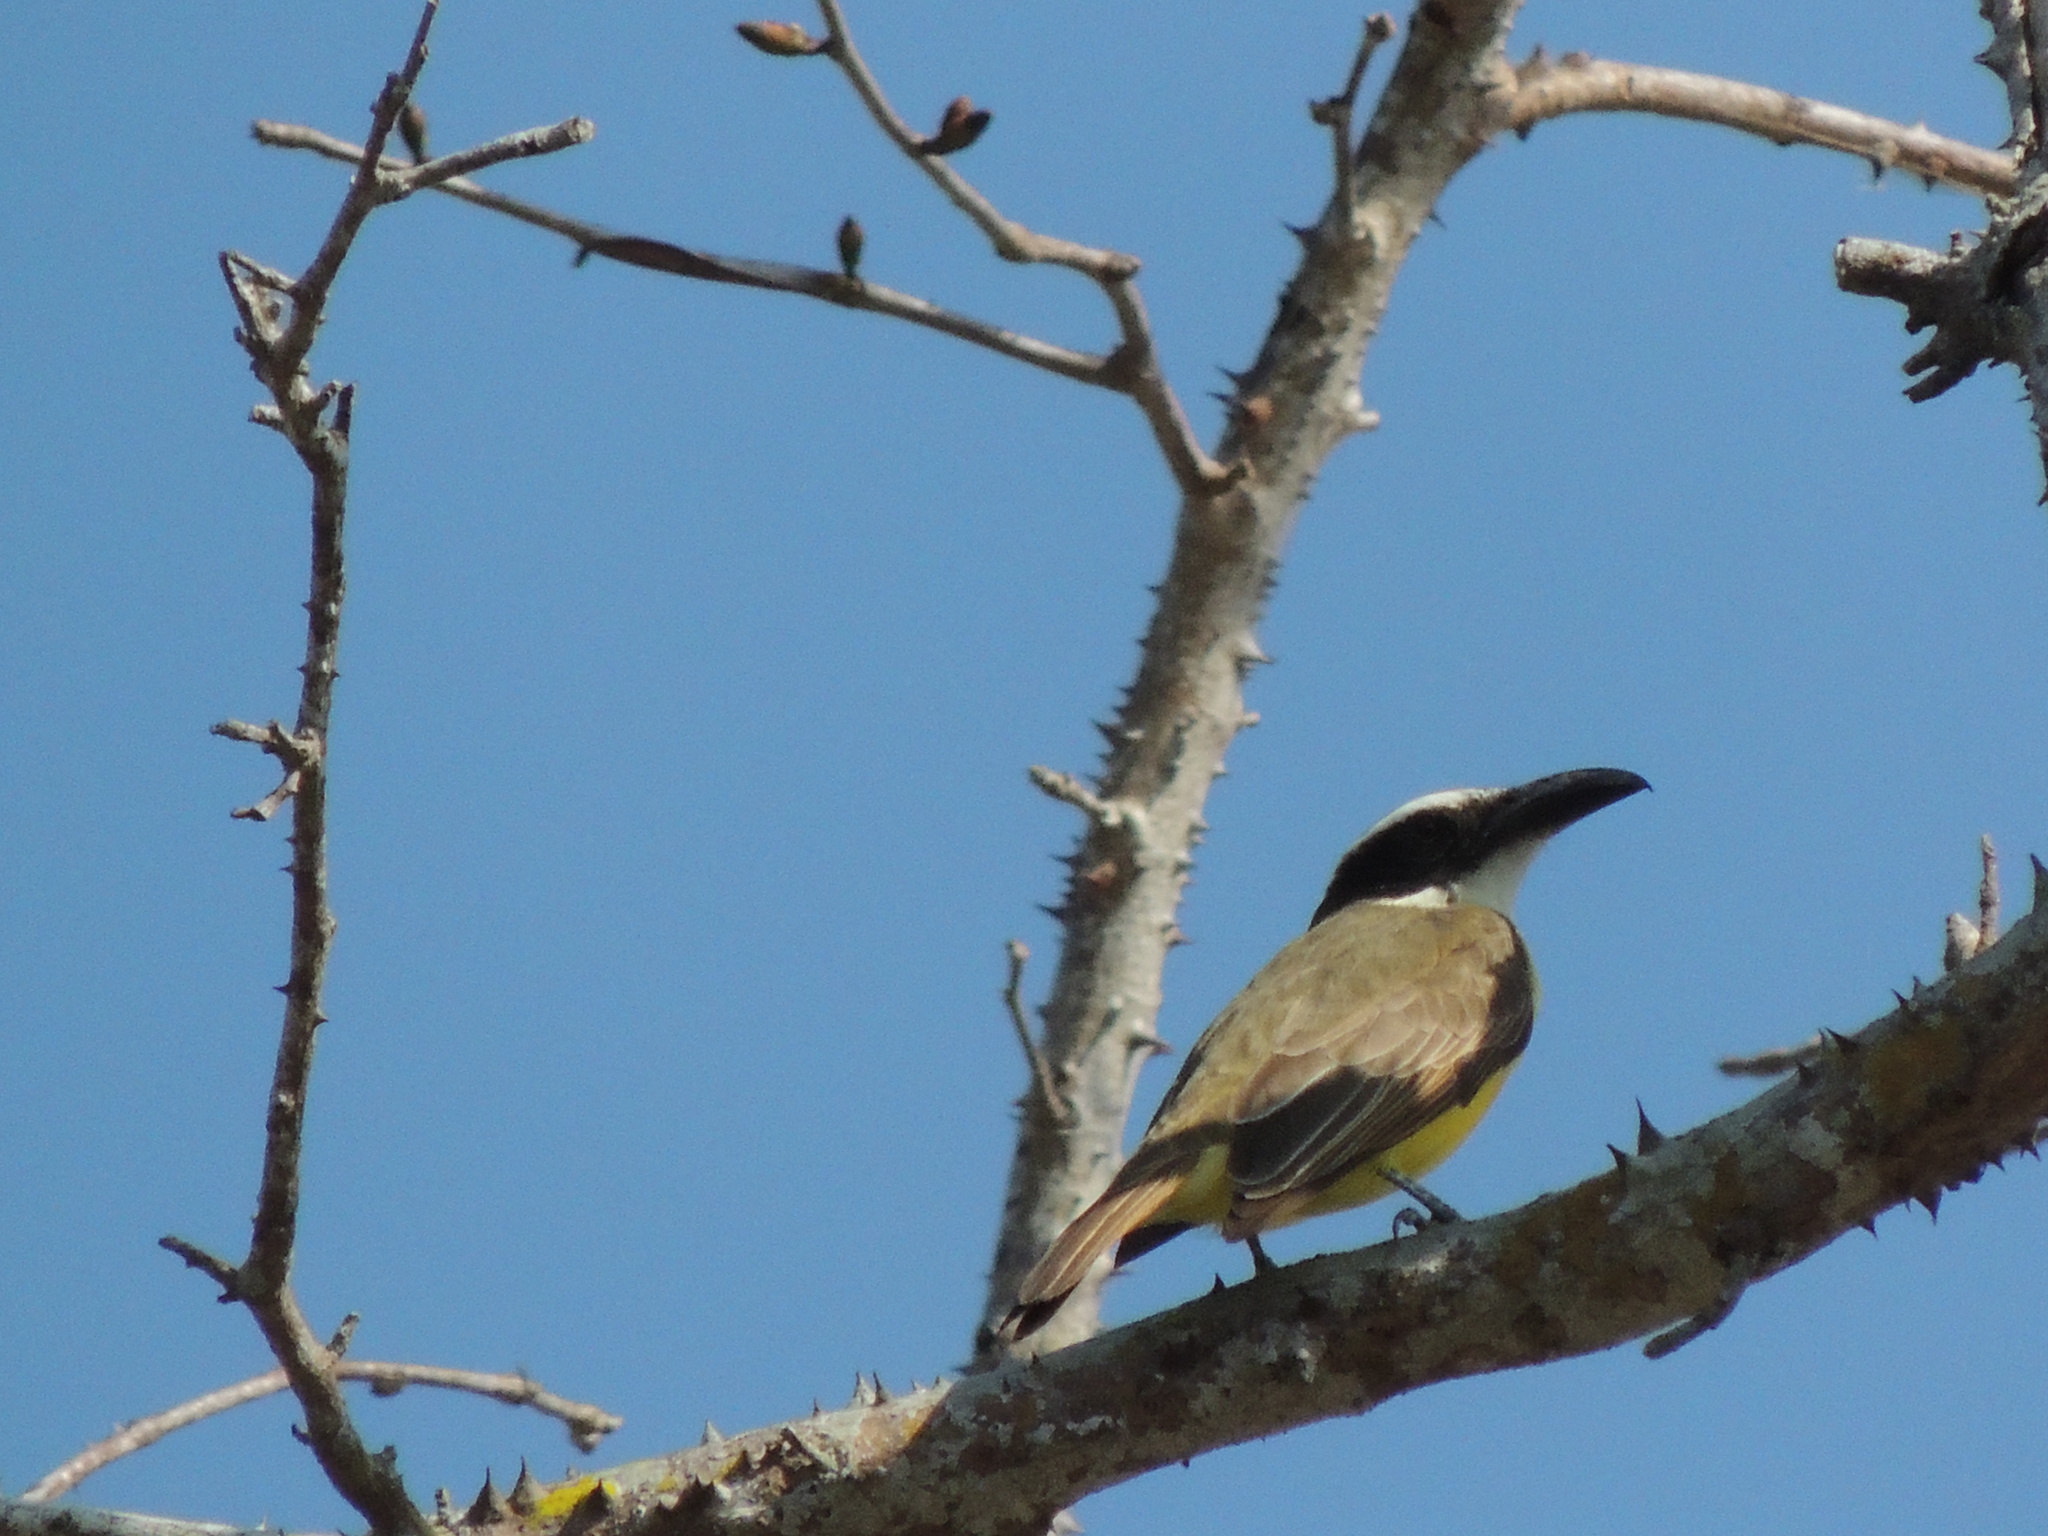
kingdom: Animalia
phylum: Chordata
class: Aves
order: Passeriformes
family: Tyrannidae
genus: Megarynchus
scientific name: Megarynchus pitangua
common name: Boat-billed flycatcher
